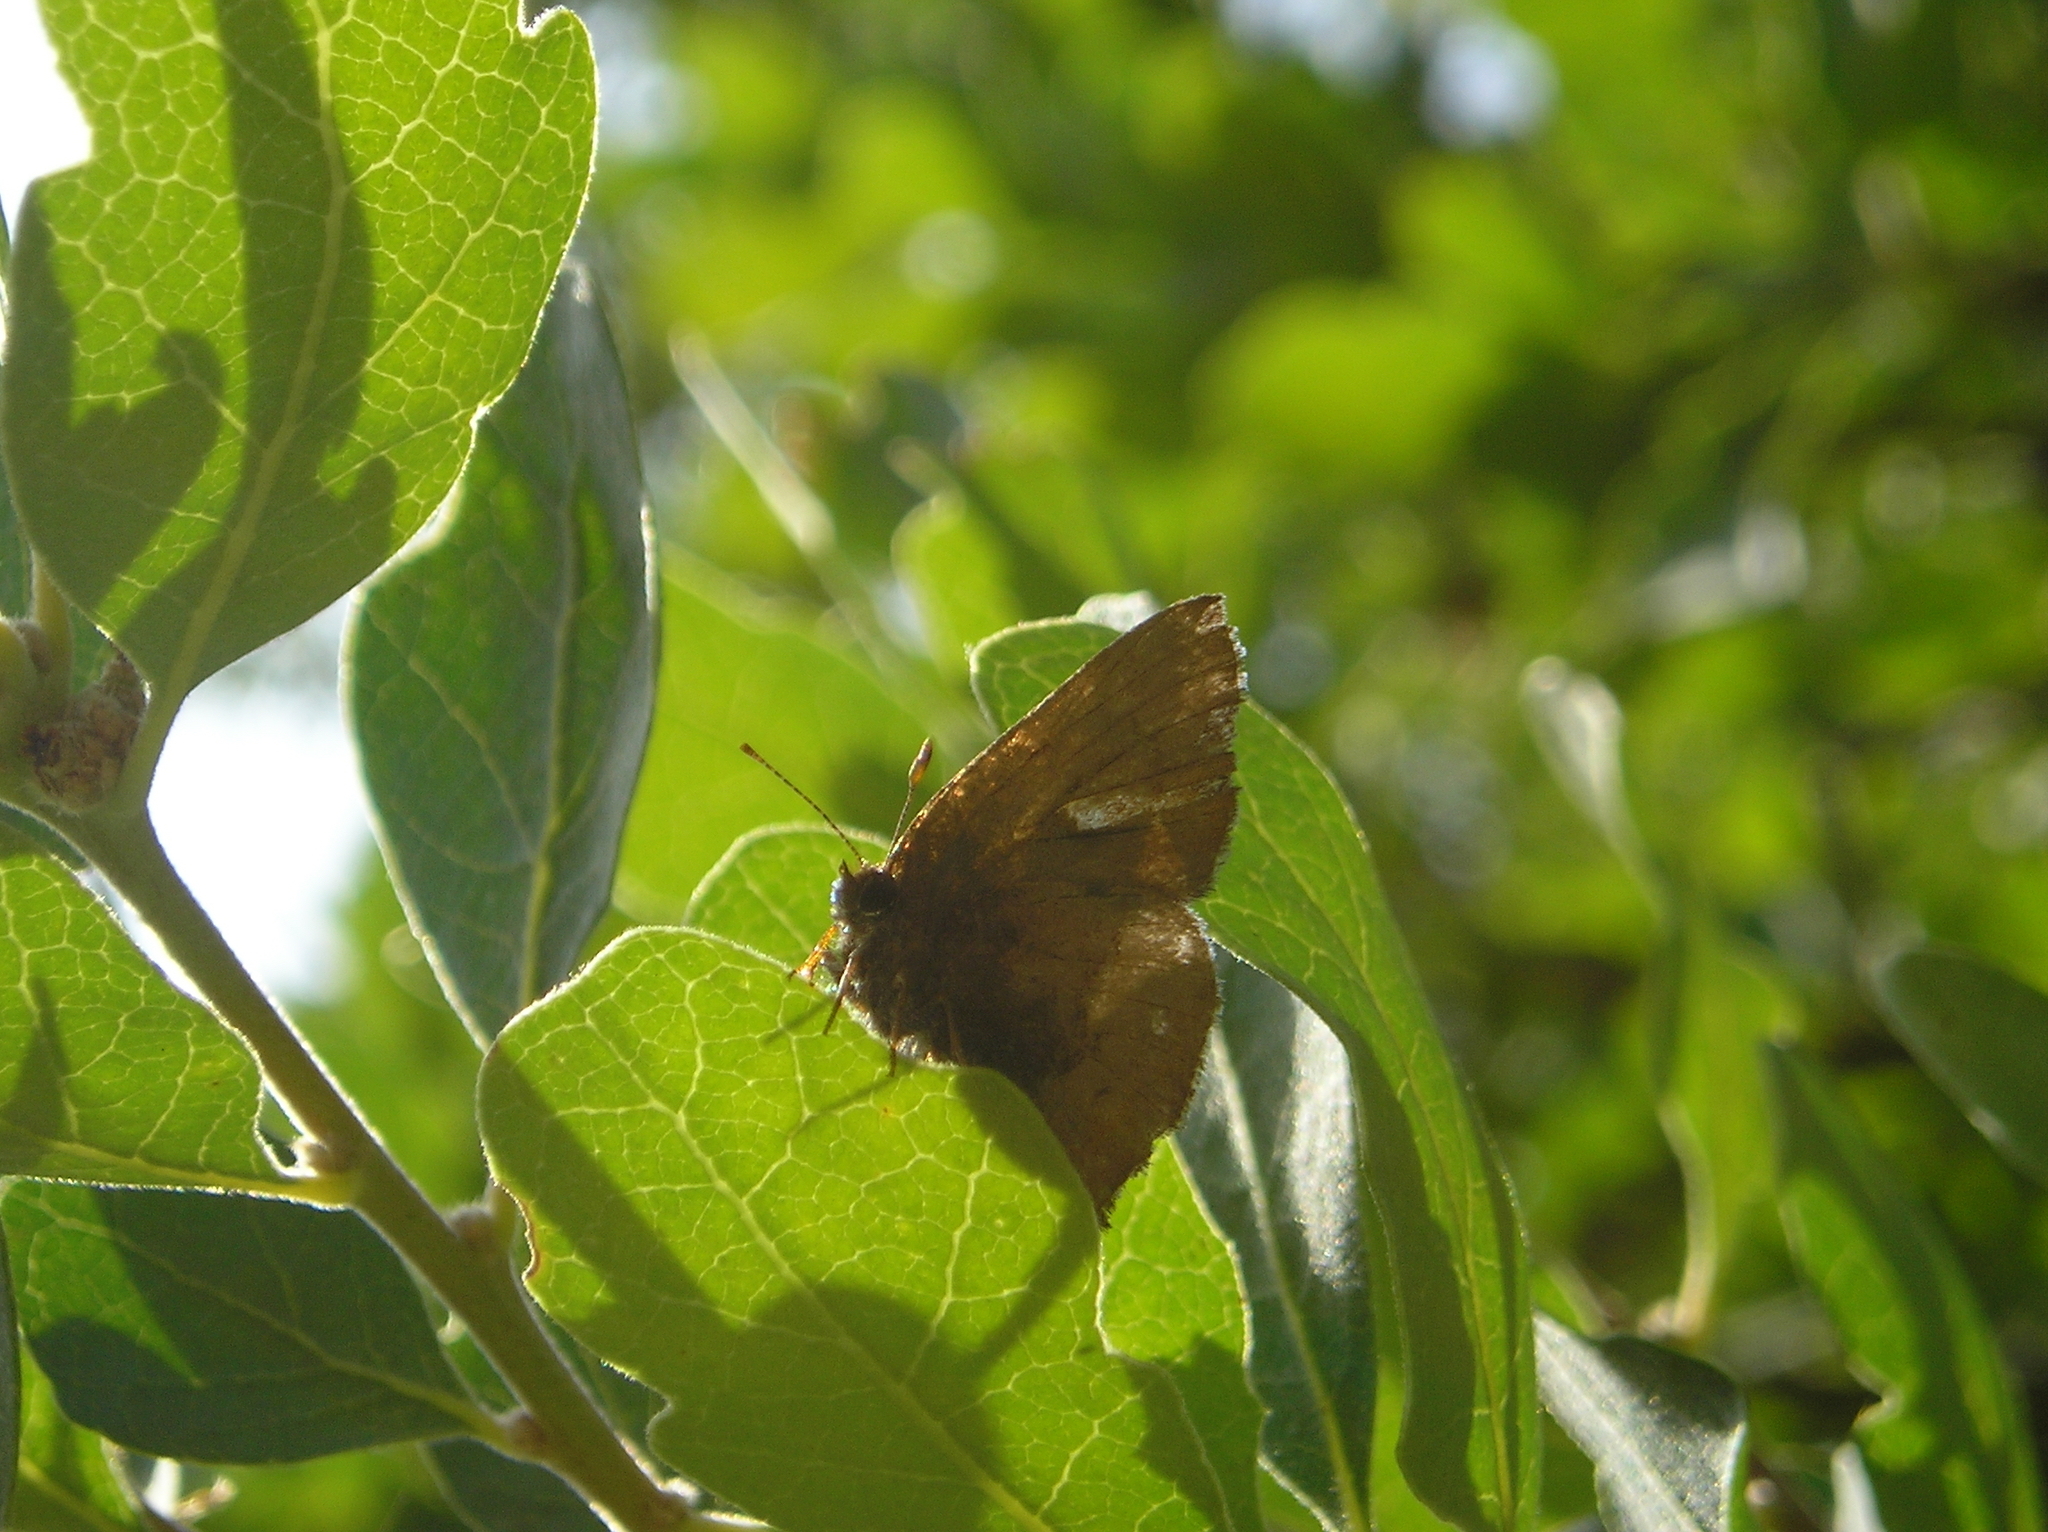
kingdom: Animalia
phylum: Arthropoda
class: Insecta
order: Lepidoptera
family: Lycaenidae
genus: Incisalia
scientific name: Incisalia irioides
